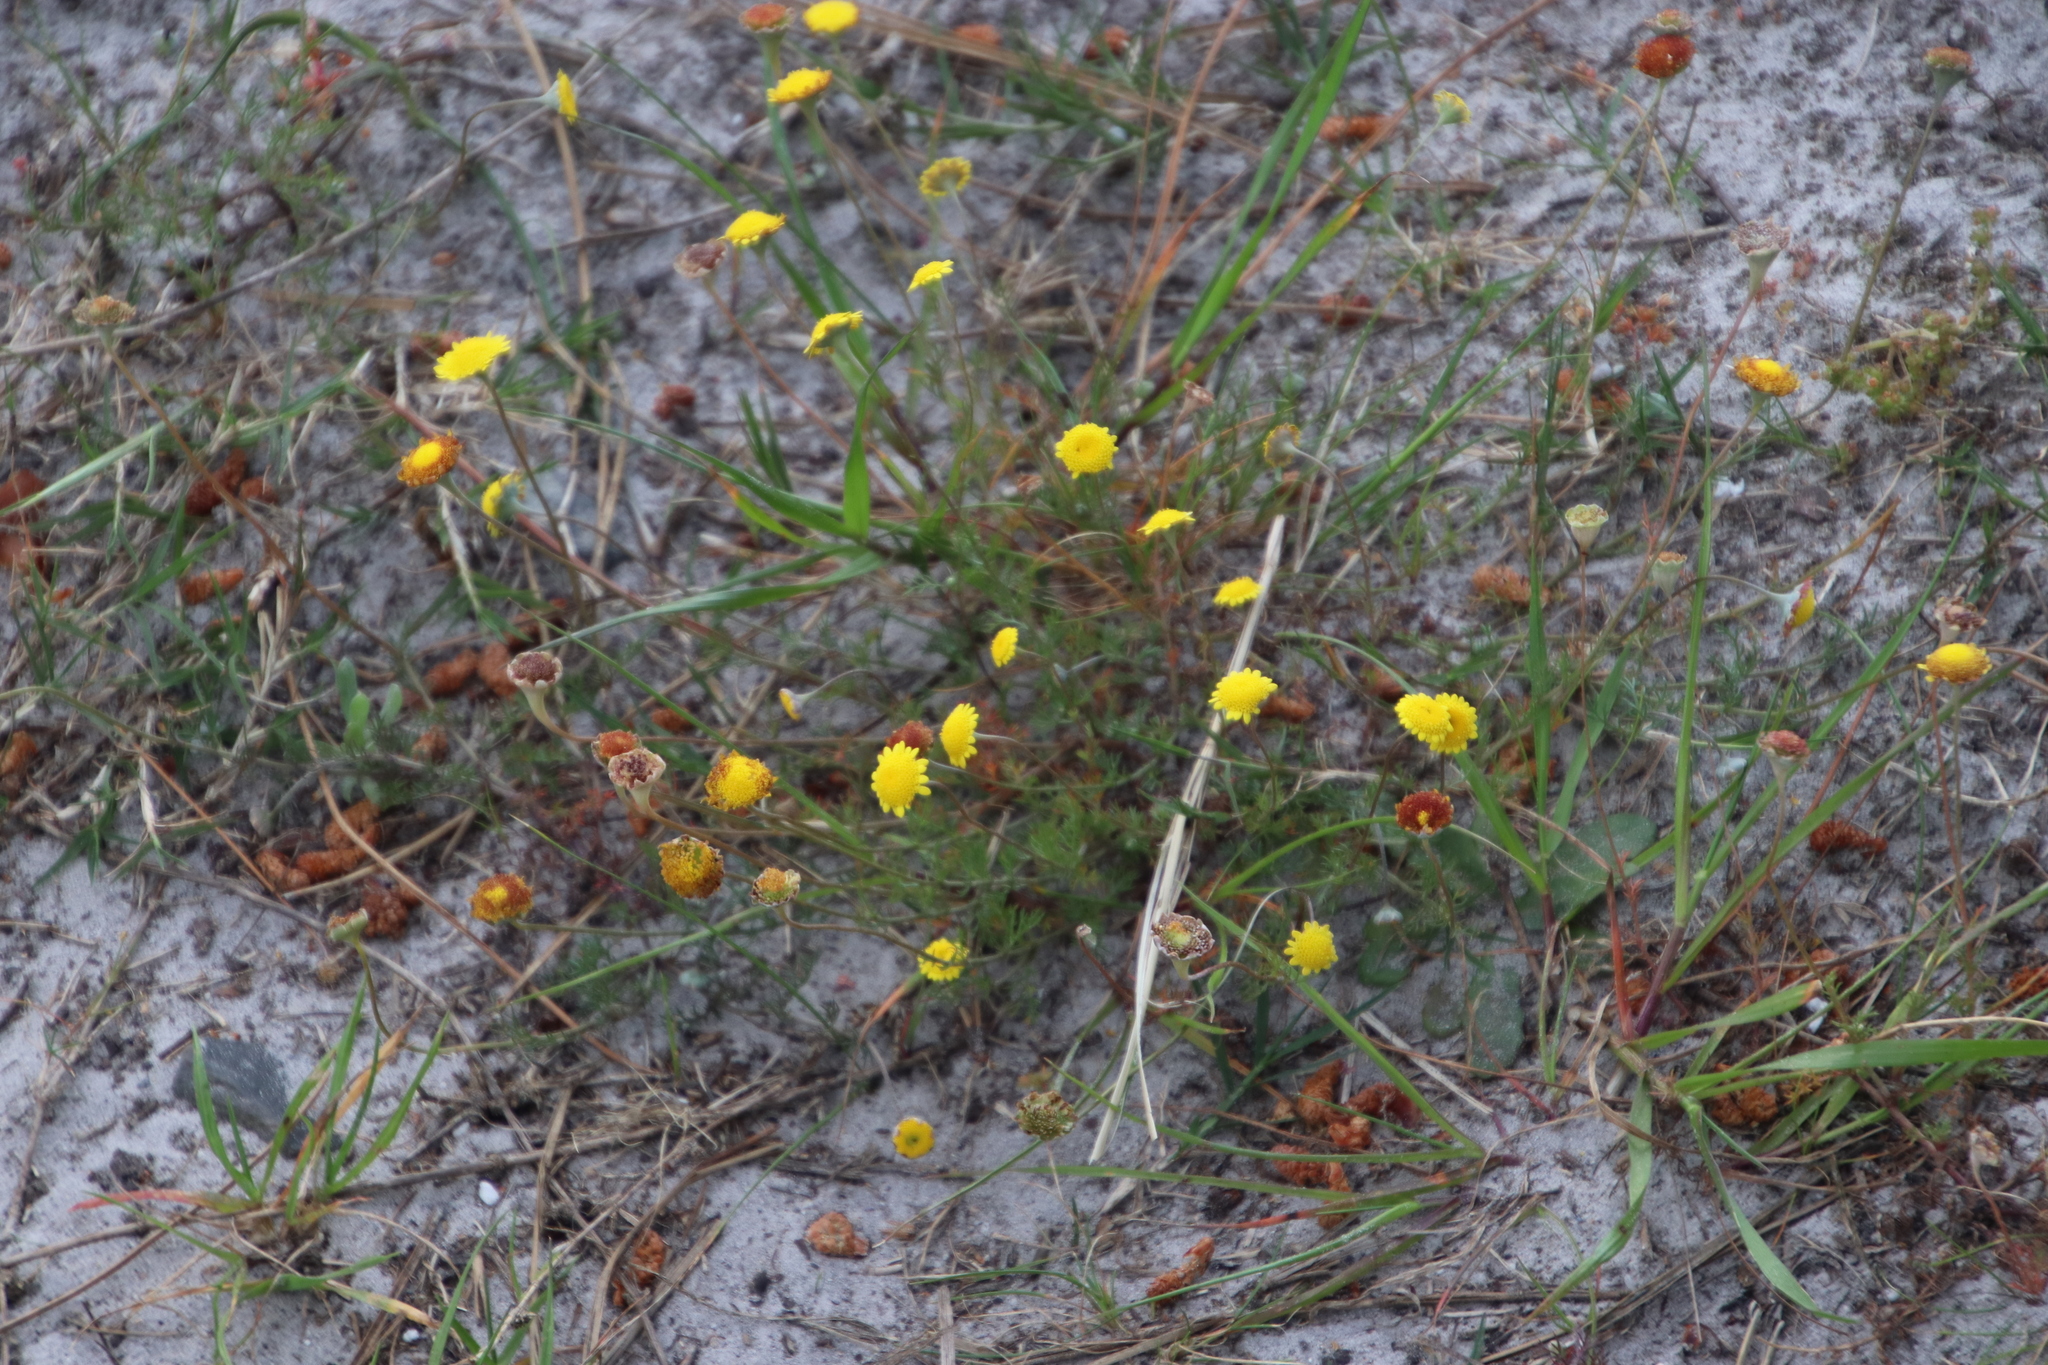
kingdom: Plantae
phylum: Tracheophyta
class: Magnoliopsida
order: Asterales
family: Asteraceae
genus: Cotula
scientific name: Cotula pruinosa
